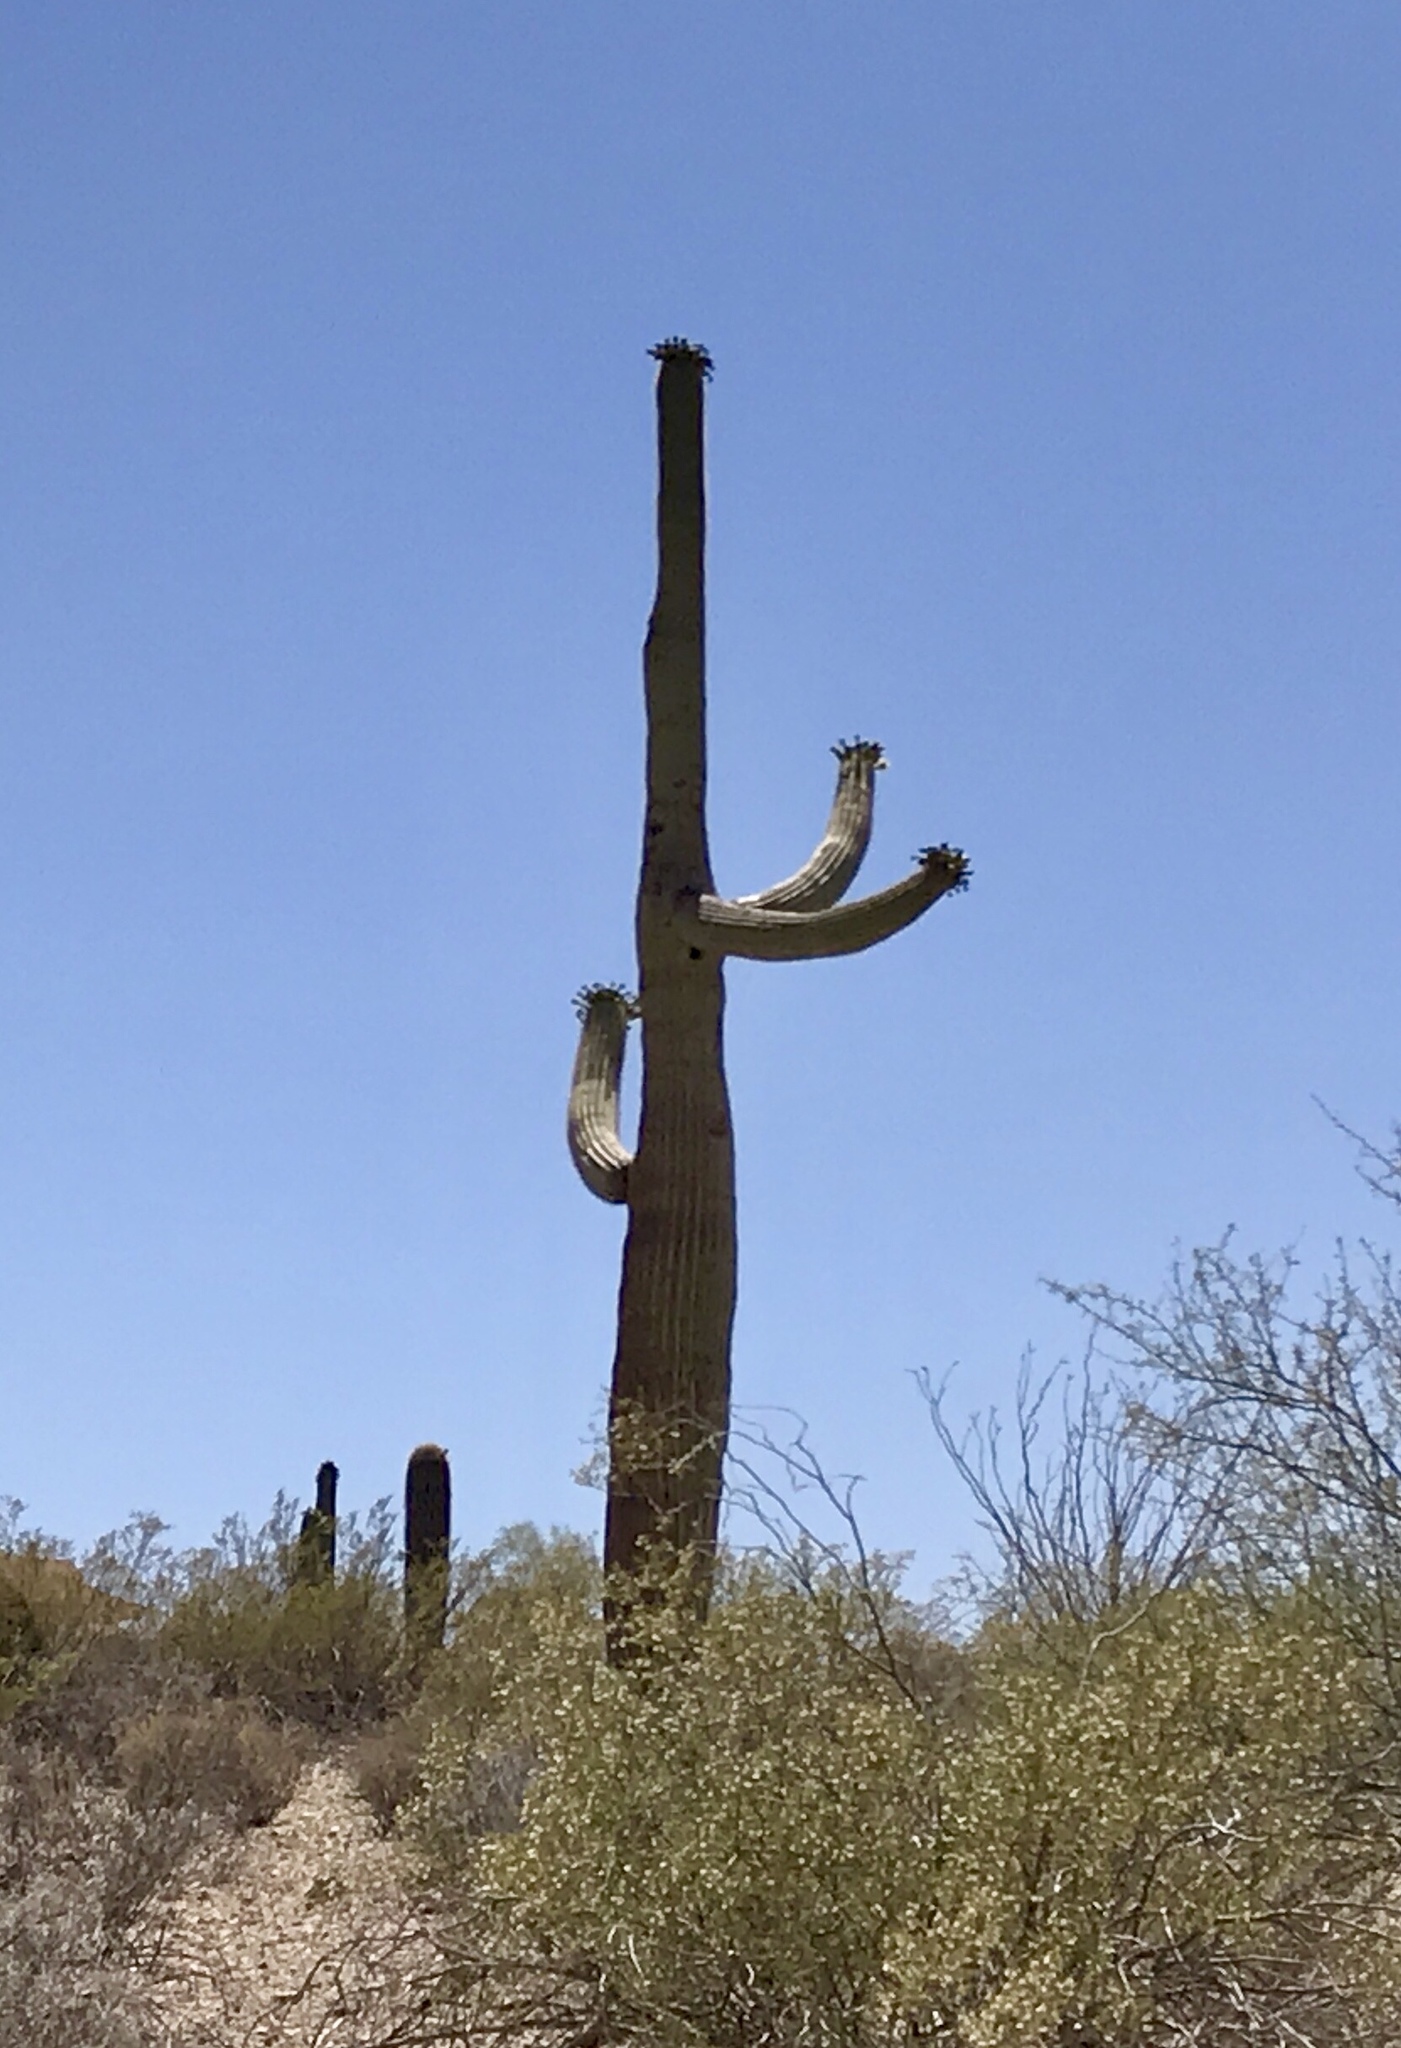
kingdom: Plantae
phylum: Tracheophyta
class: Magnoliopsida
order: Caryophyllales
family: Cactaceae
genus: Carnegiea
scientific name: Carnegiea gigantea
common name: Saguaro
